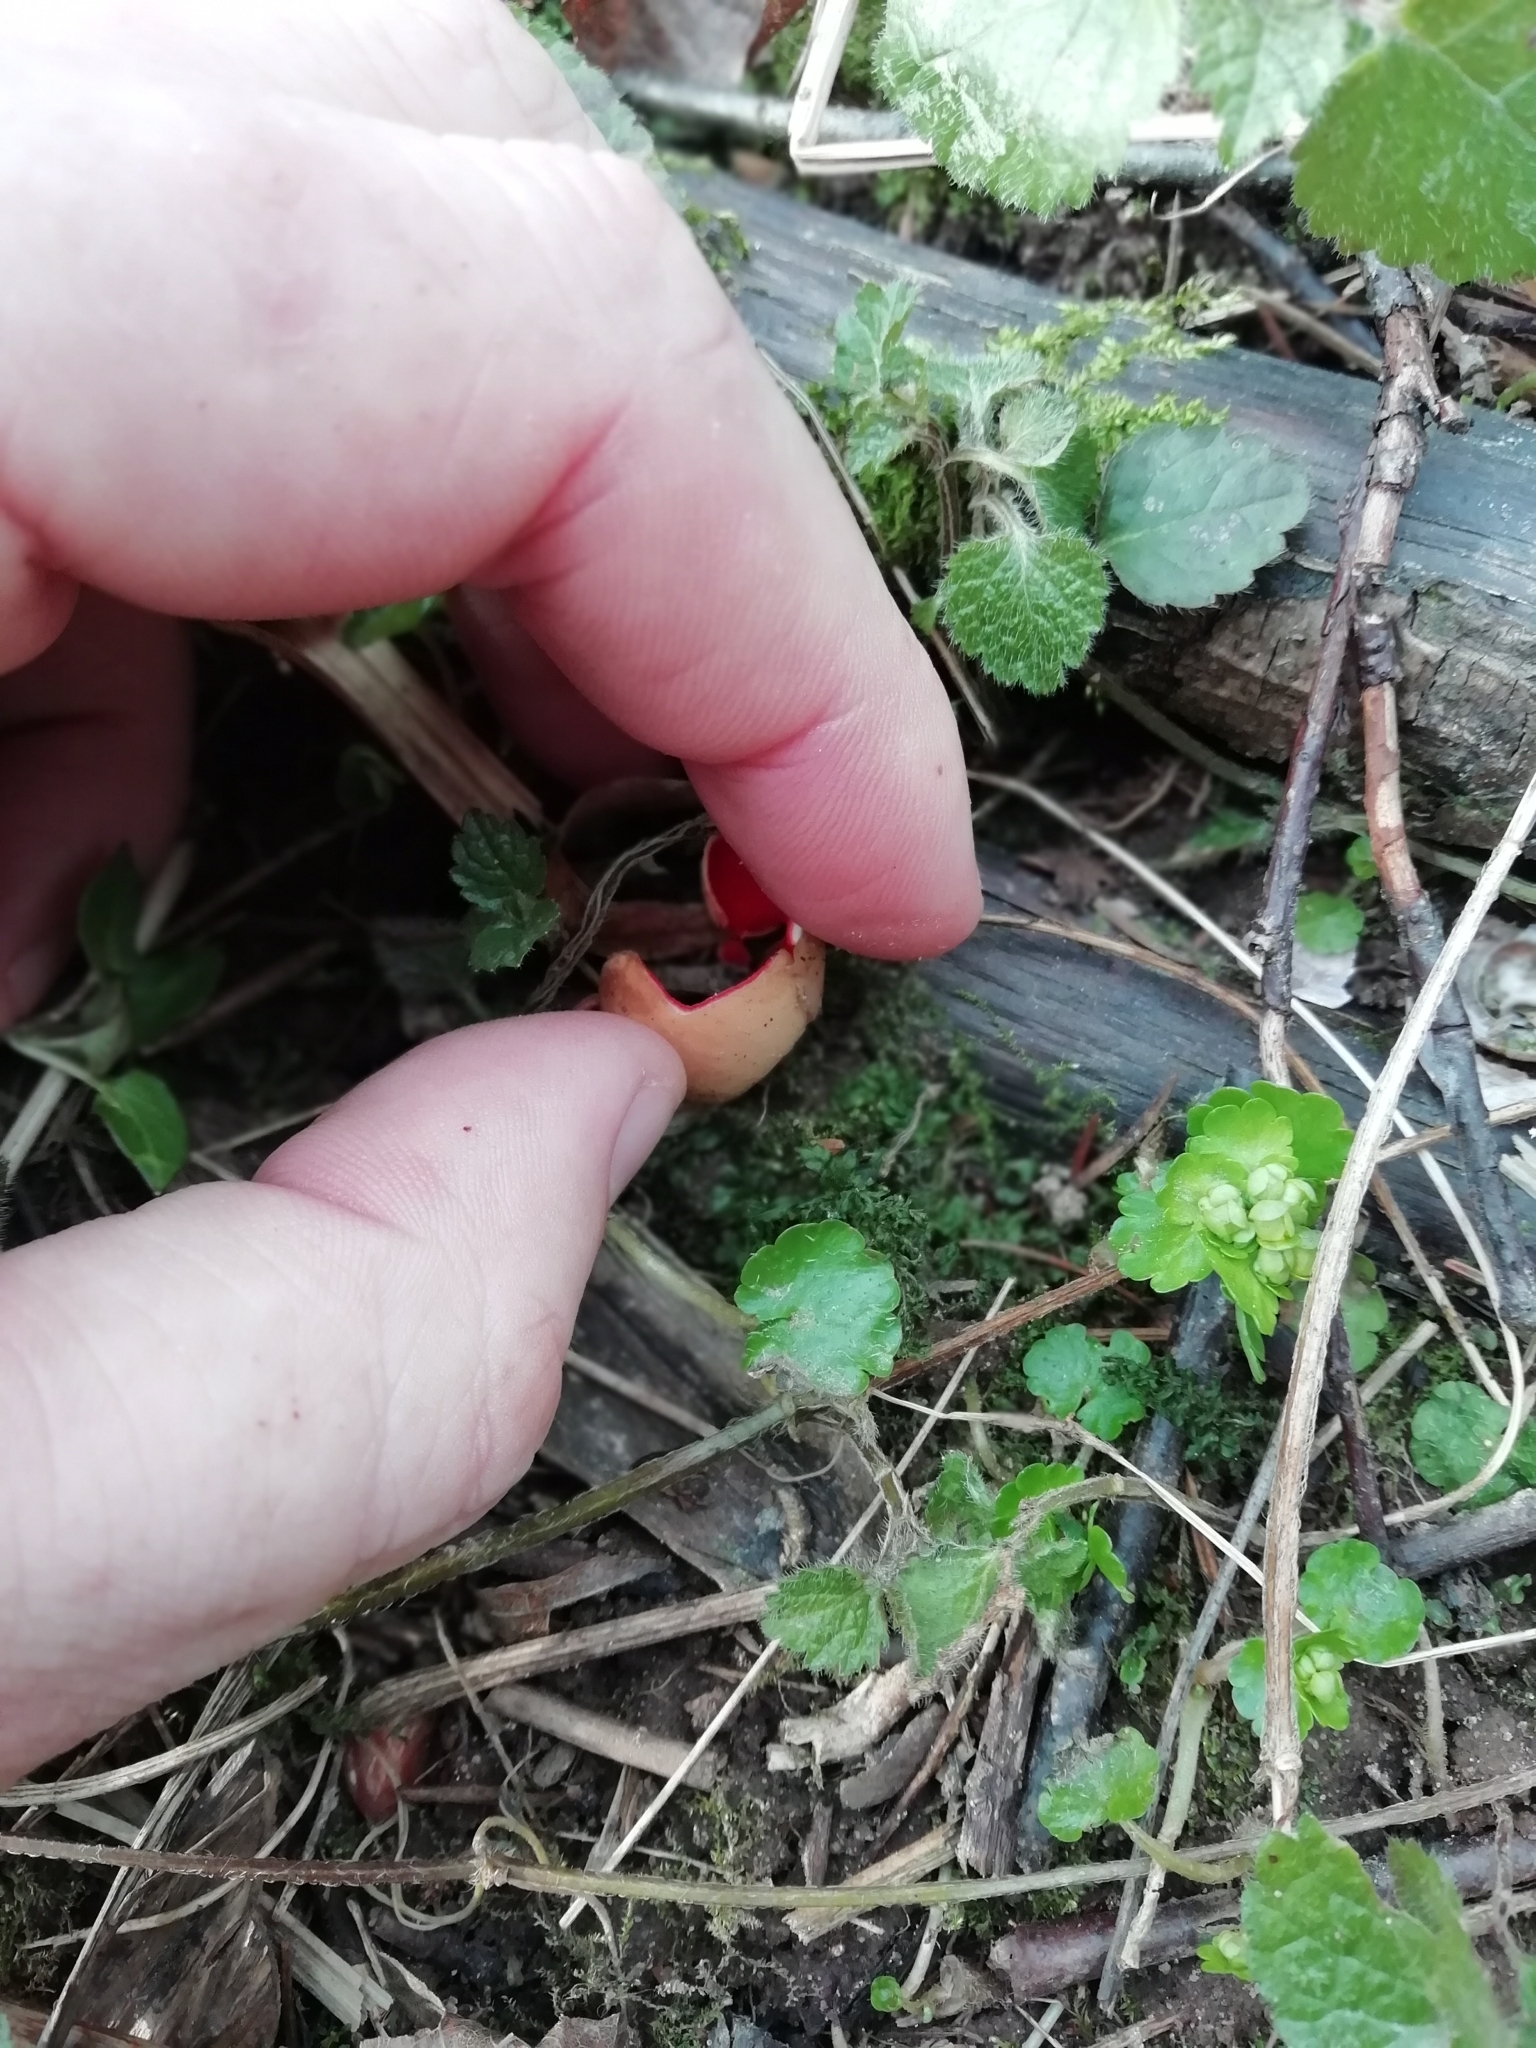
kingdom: Fungi
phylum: Ascomycota
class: Pezizomycetes
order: Pezizales
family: Sarcoscyphaceae
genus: Sarcoscypha
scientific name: Sarcoscypha austriaca
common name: Scarlet elfcup
